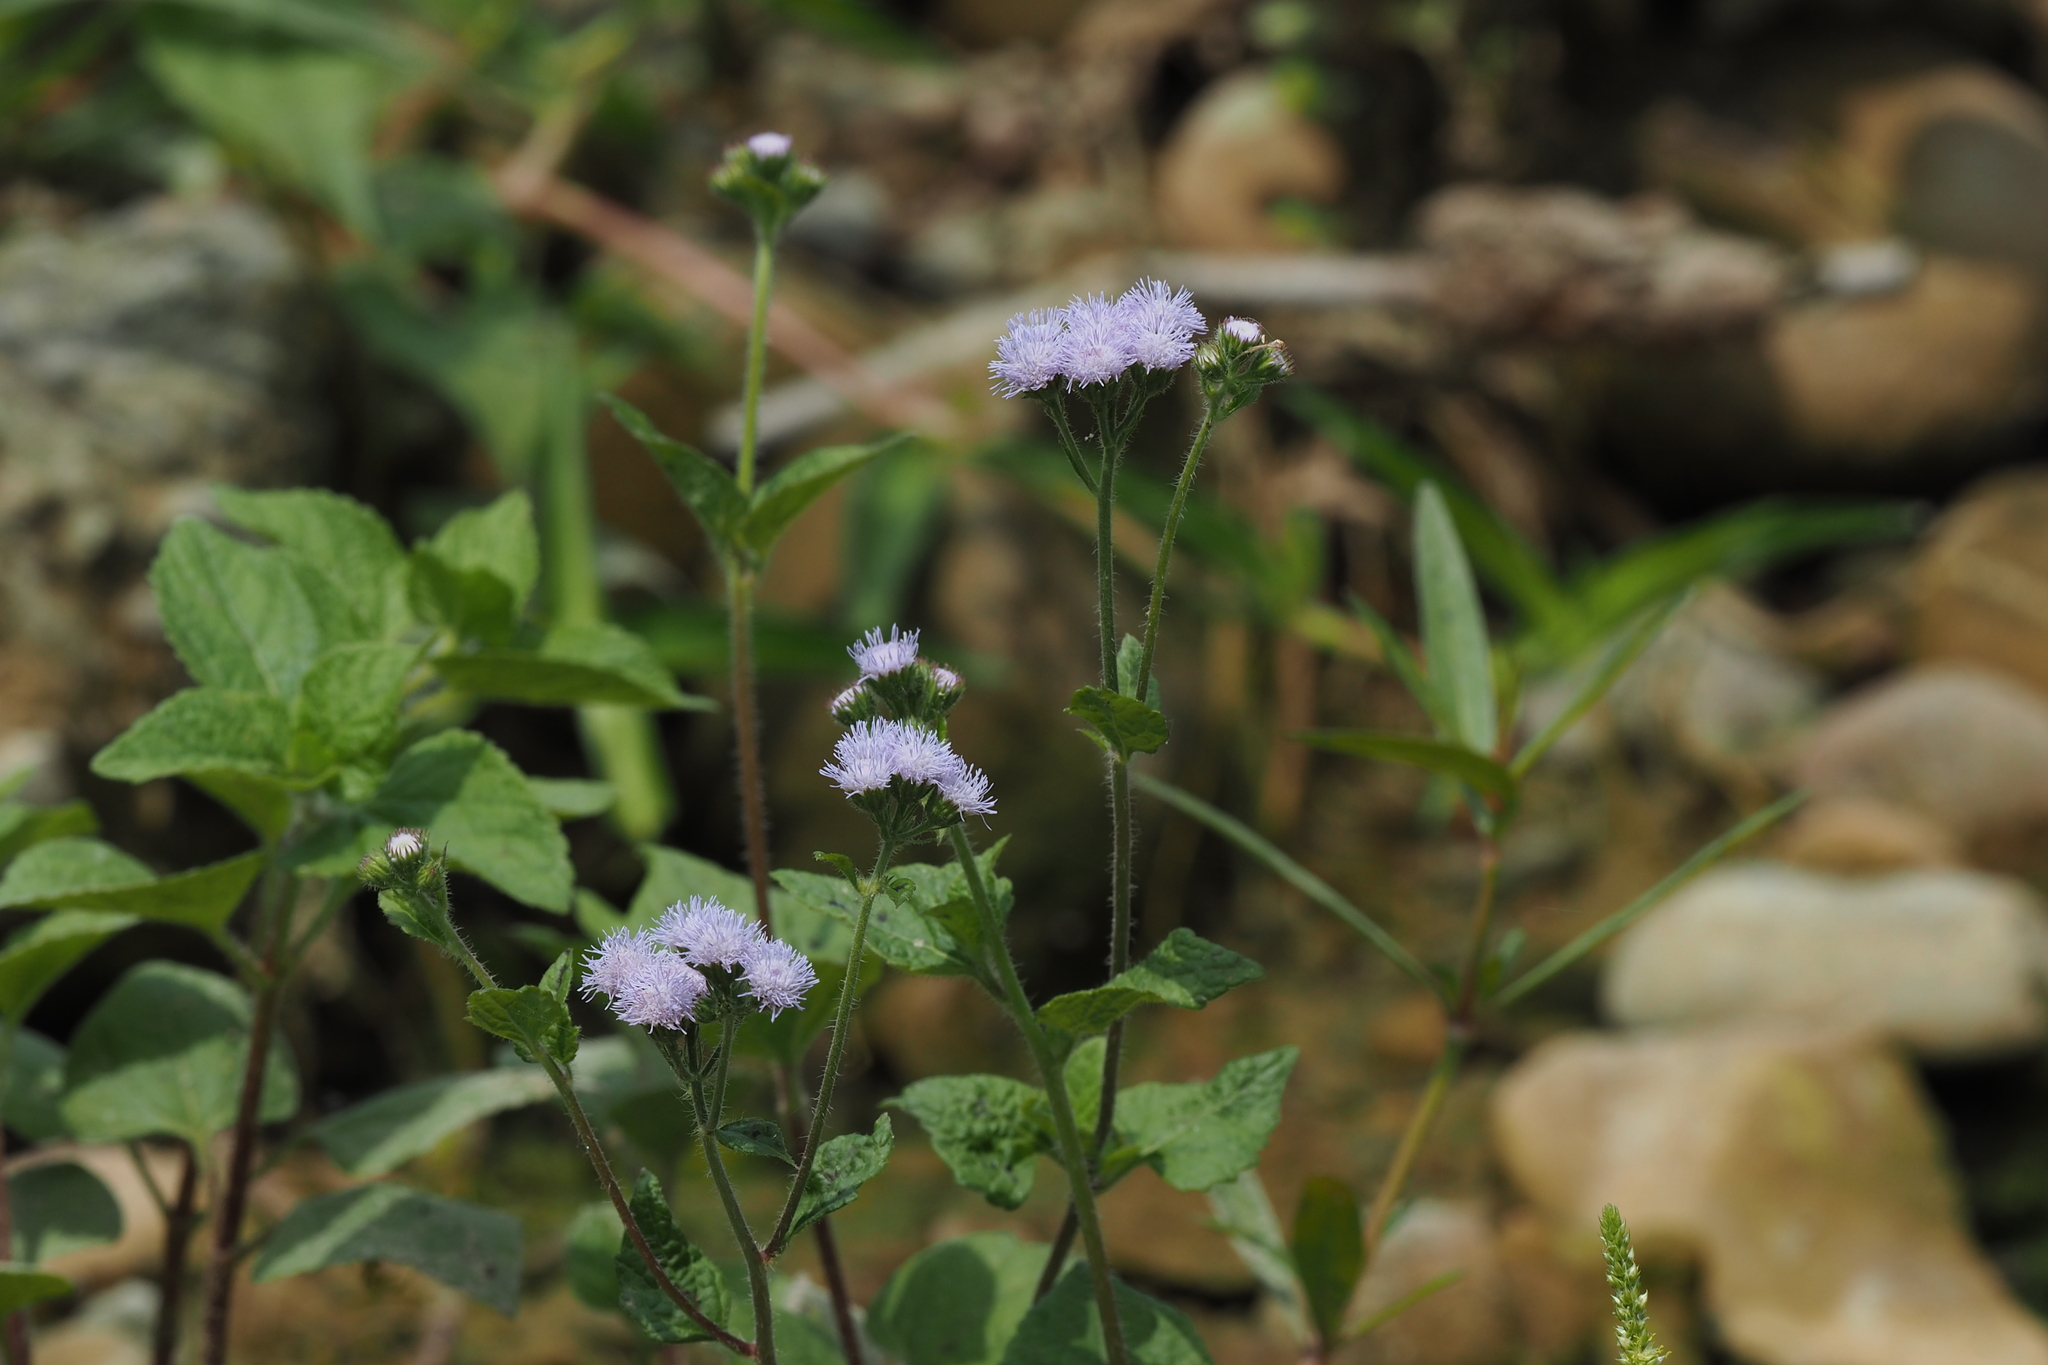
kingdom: Plantae
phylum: Tracheophyta
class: Magnoliopsida
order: Asterales
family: Asteraceae
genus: Ageratum
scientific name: Ageratum houstonianum
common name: Bluemink
